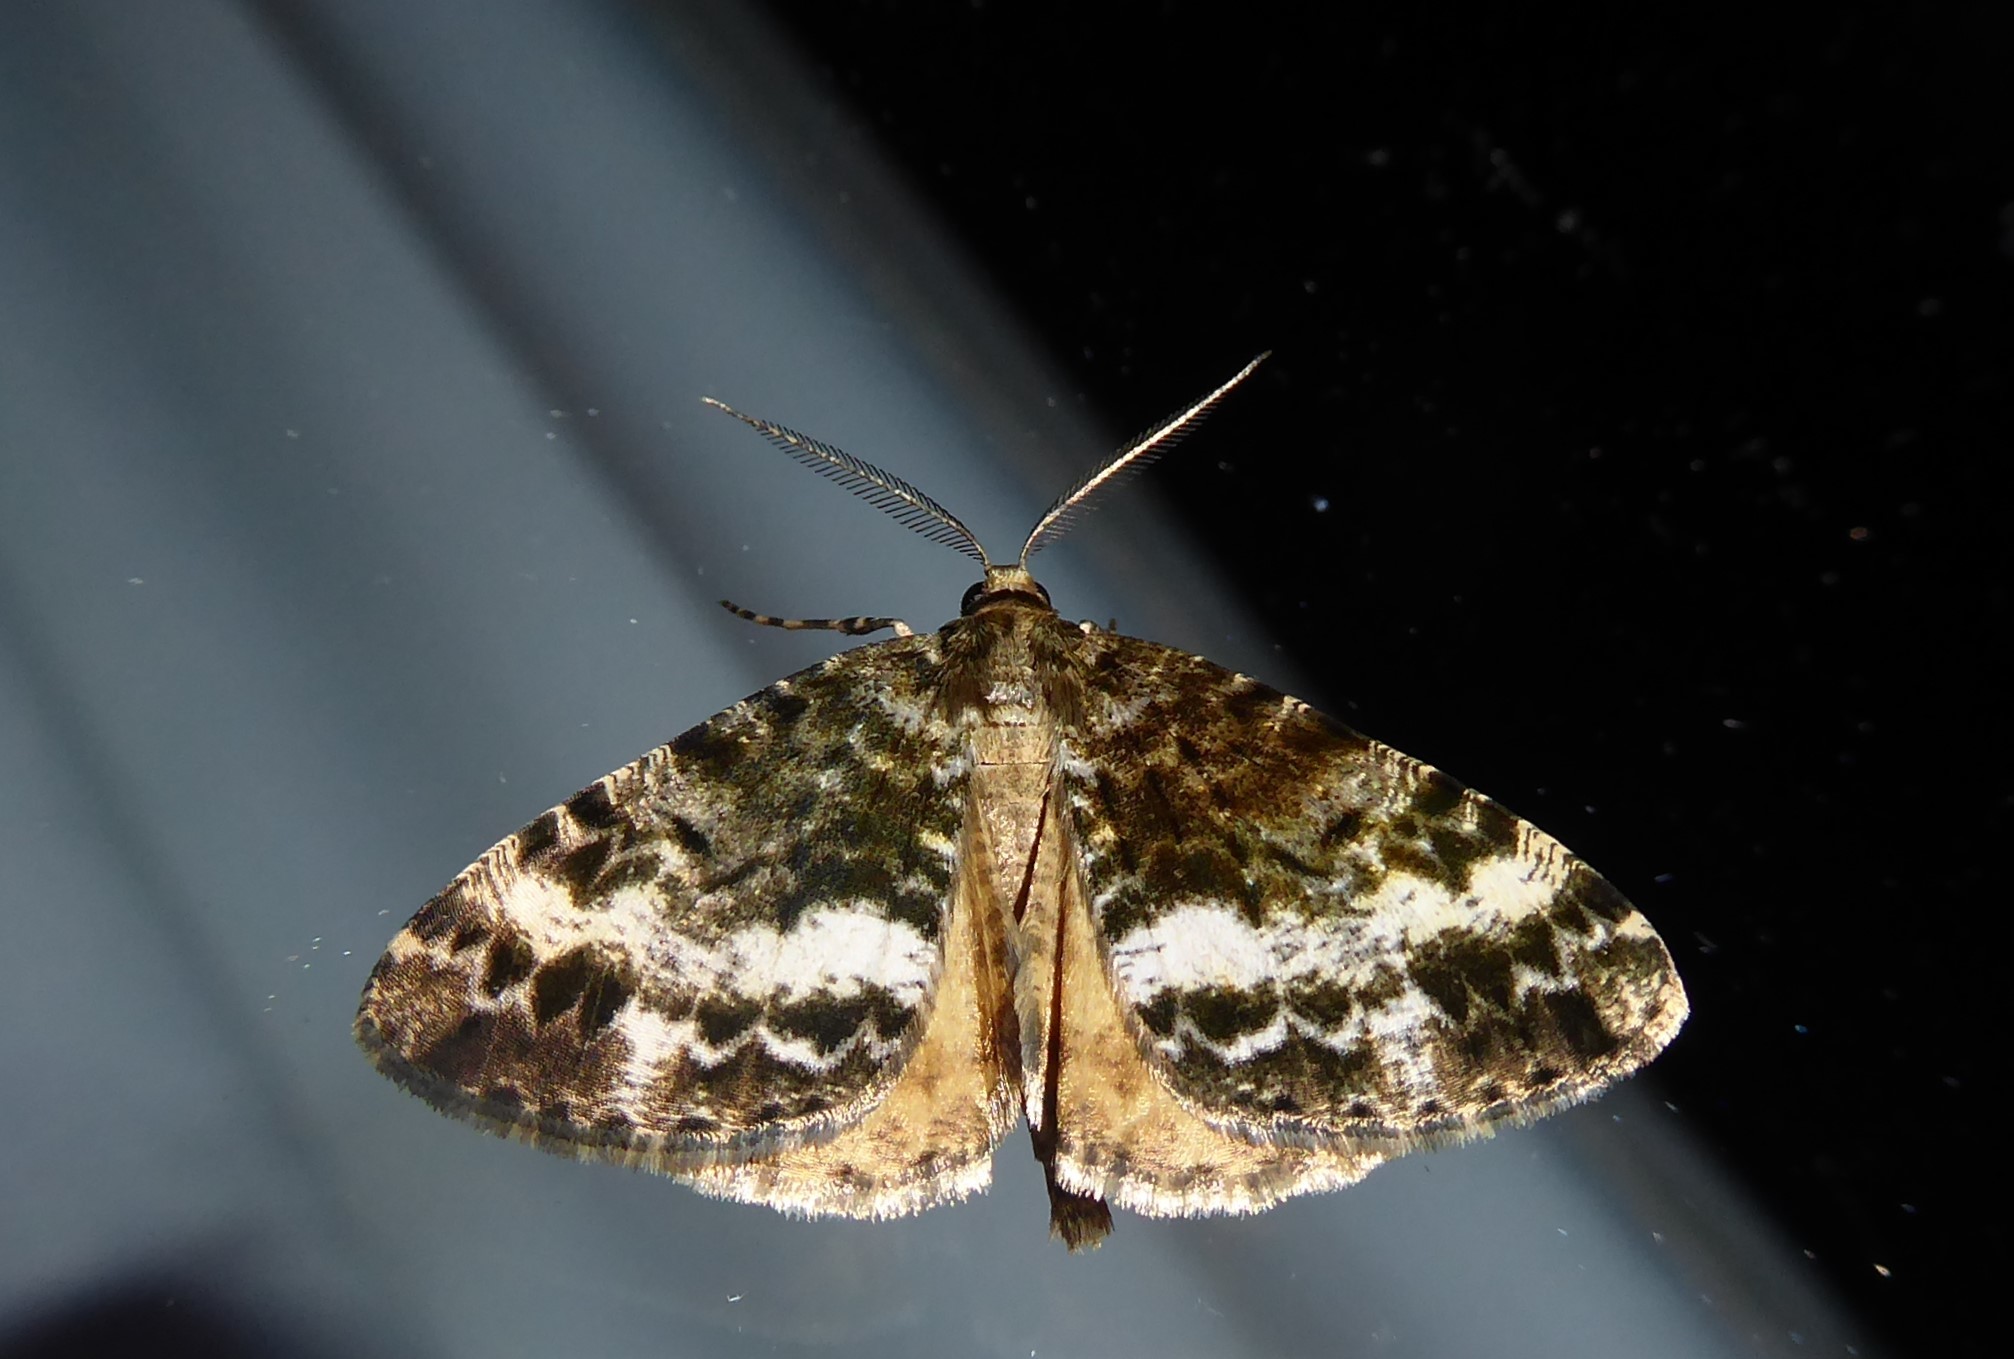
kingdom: Animalia
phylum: Arthropoda
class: Insecta
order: Lepidoptera
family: Geometridae
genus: Pseudocoremia
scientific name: Pseudocoremia lactiflua
